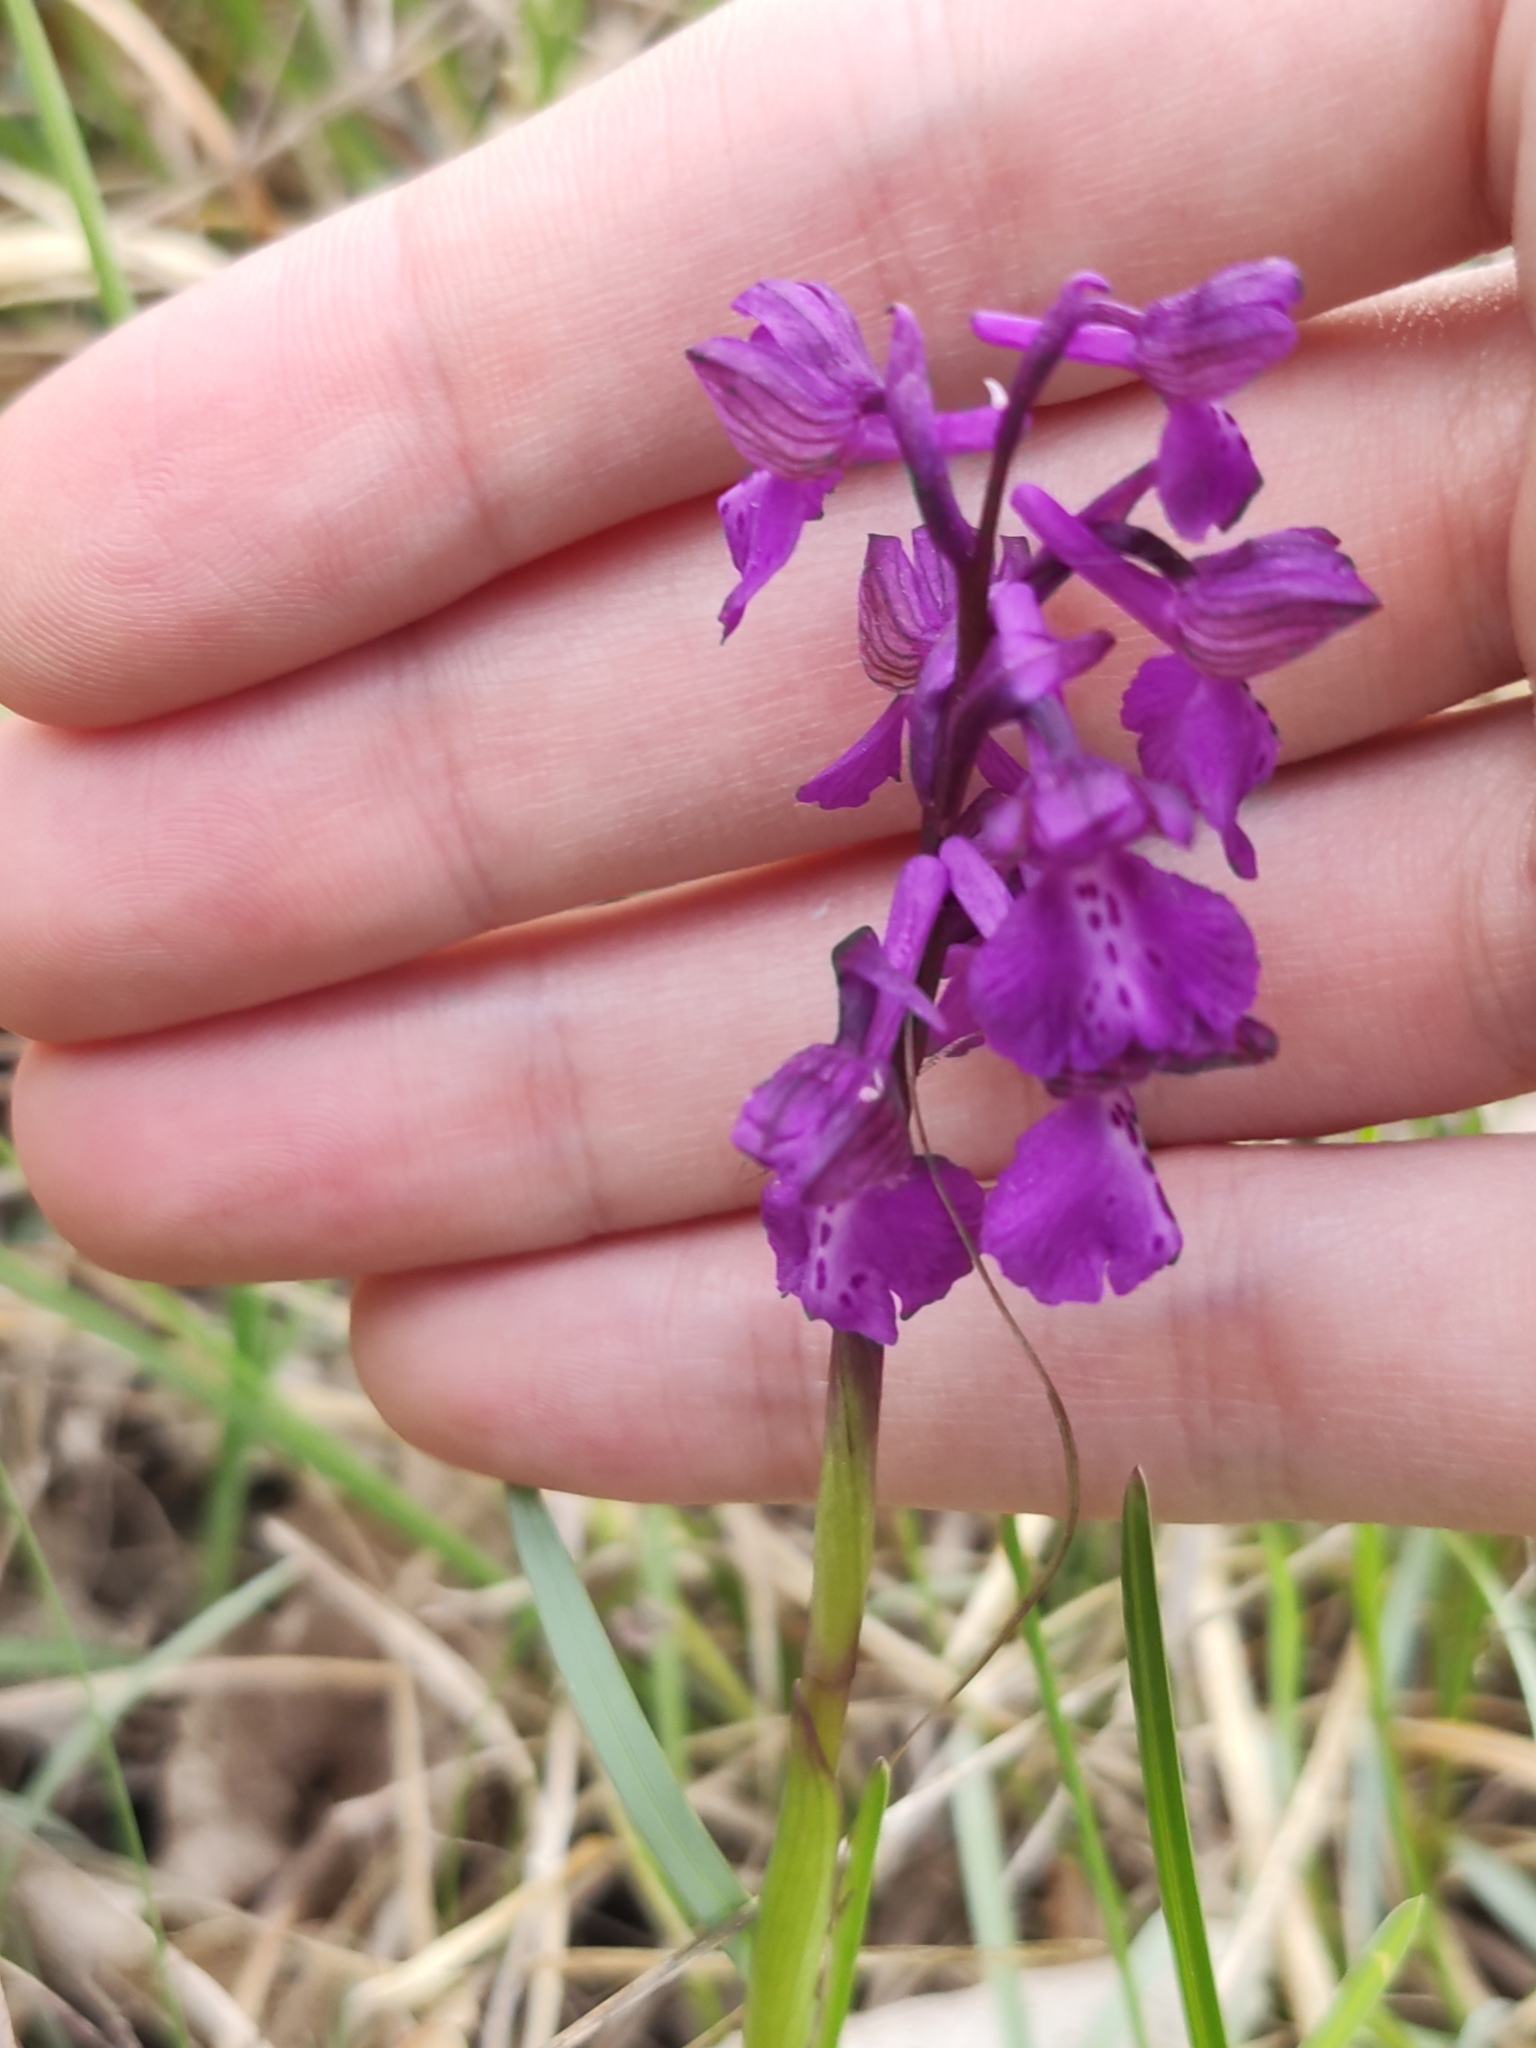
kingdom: Plantae
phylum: Tracheophyta
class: Liliopsida
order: Asparagales
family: Orchidaceae
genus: Anacamptis
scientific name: Anacamptis morio
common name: Green-winged orchid
